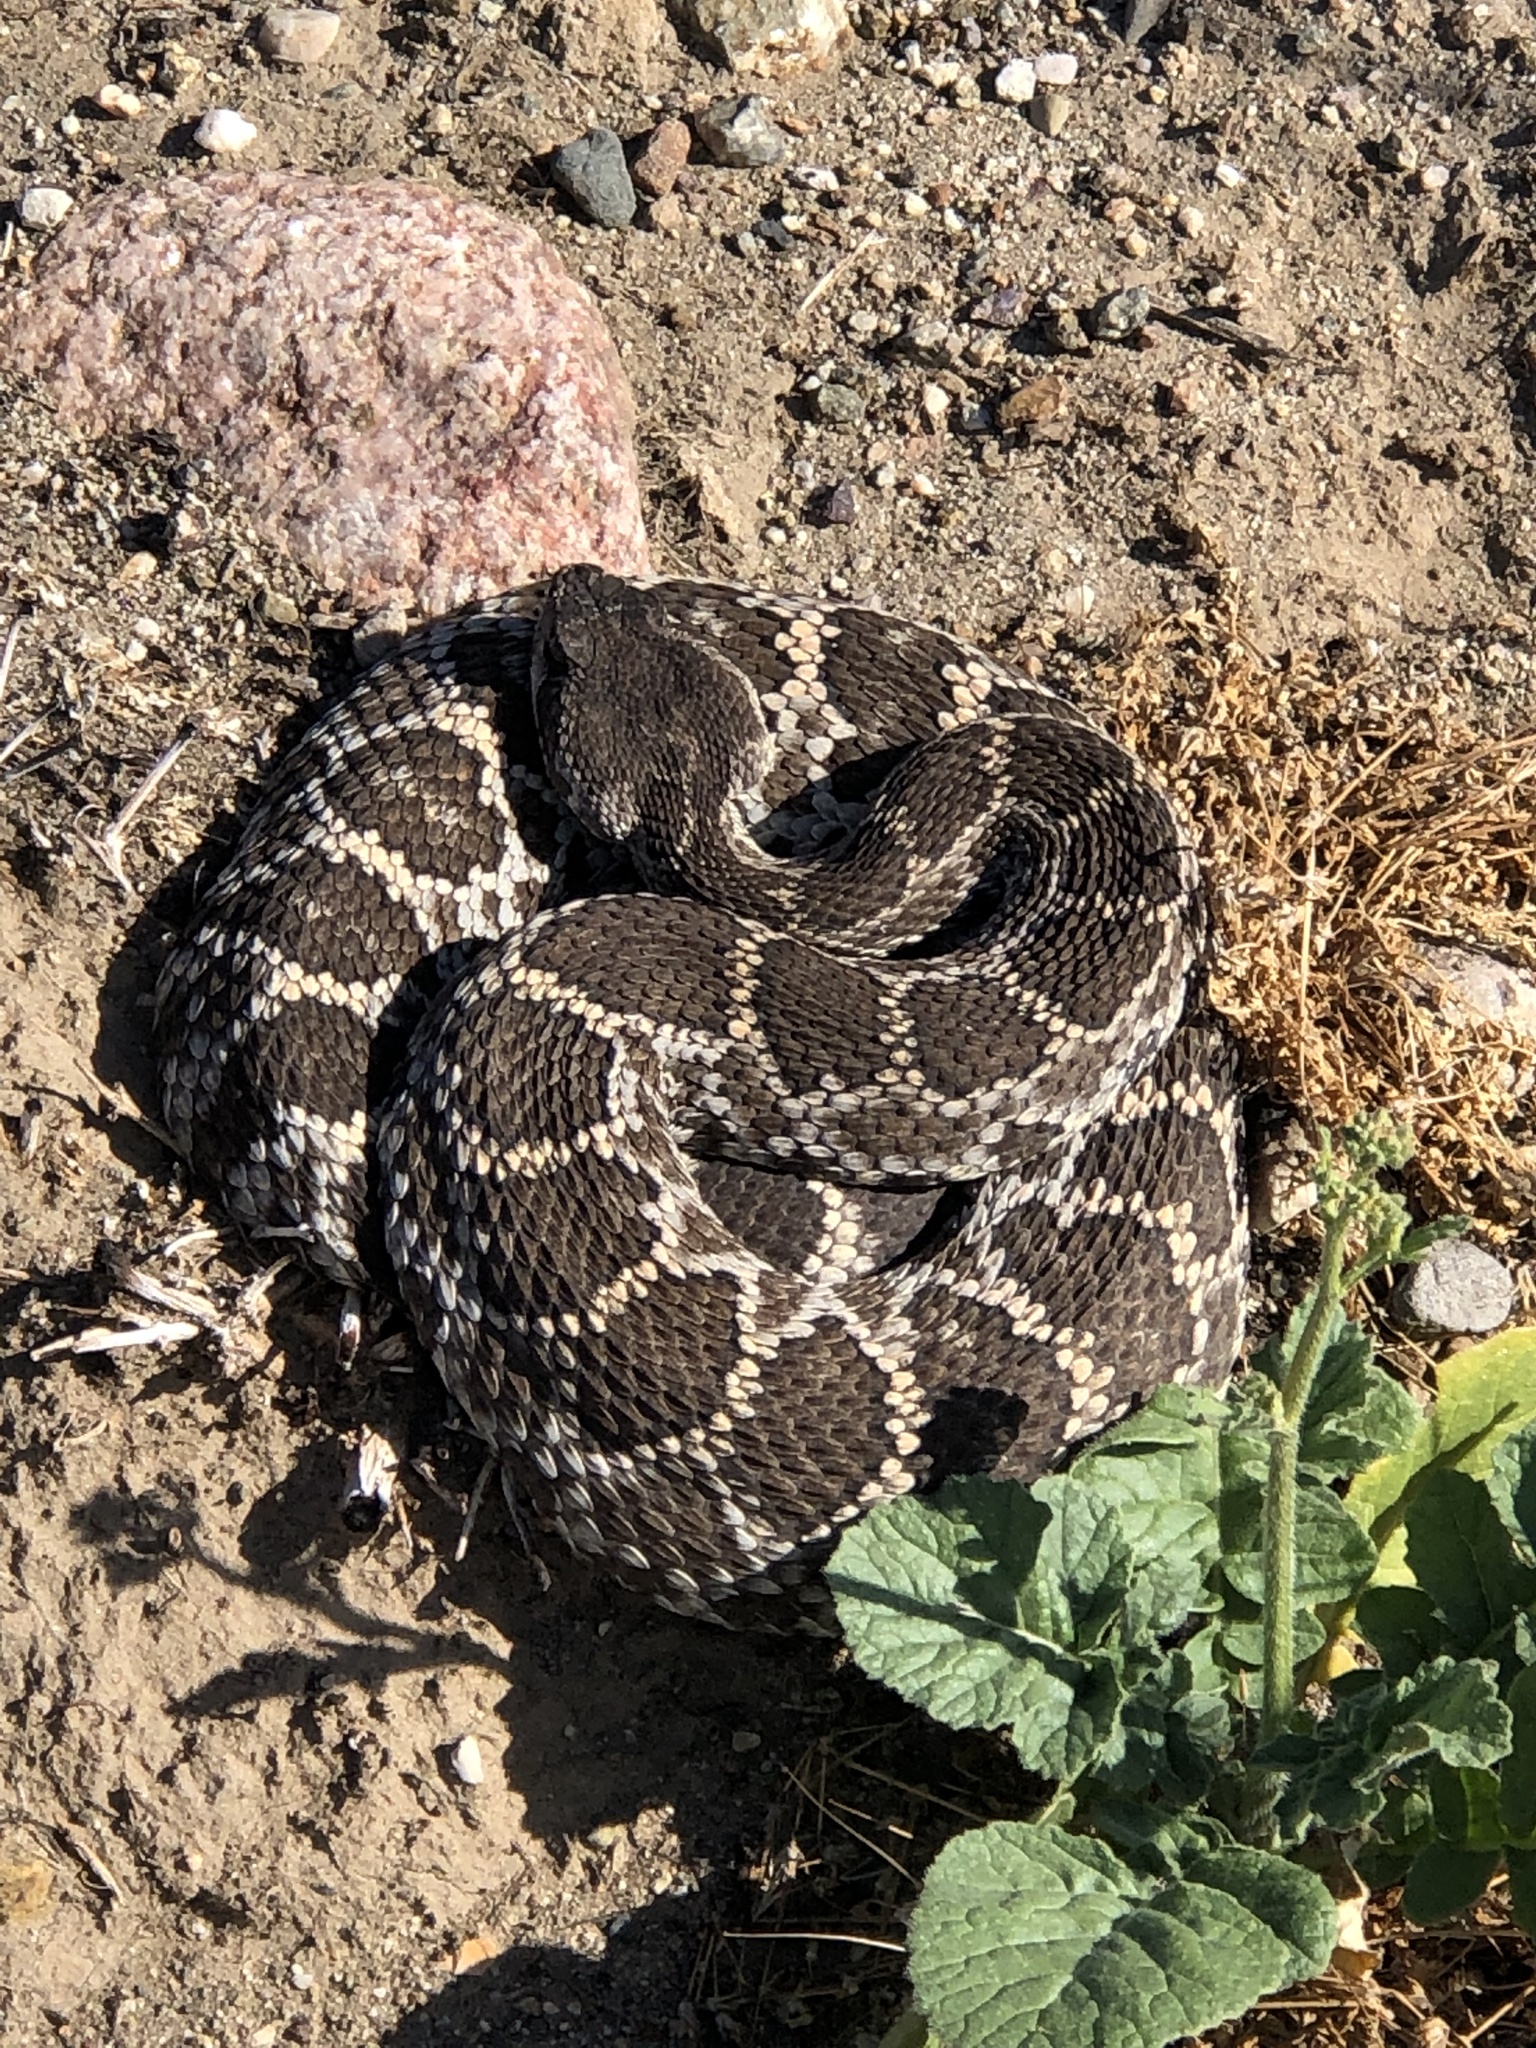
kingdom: Animalia
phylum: Chordata
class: Squamata
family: Viperidae
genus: Crotalus
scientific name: Crotalus oreganus
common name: Abyssus
